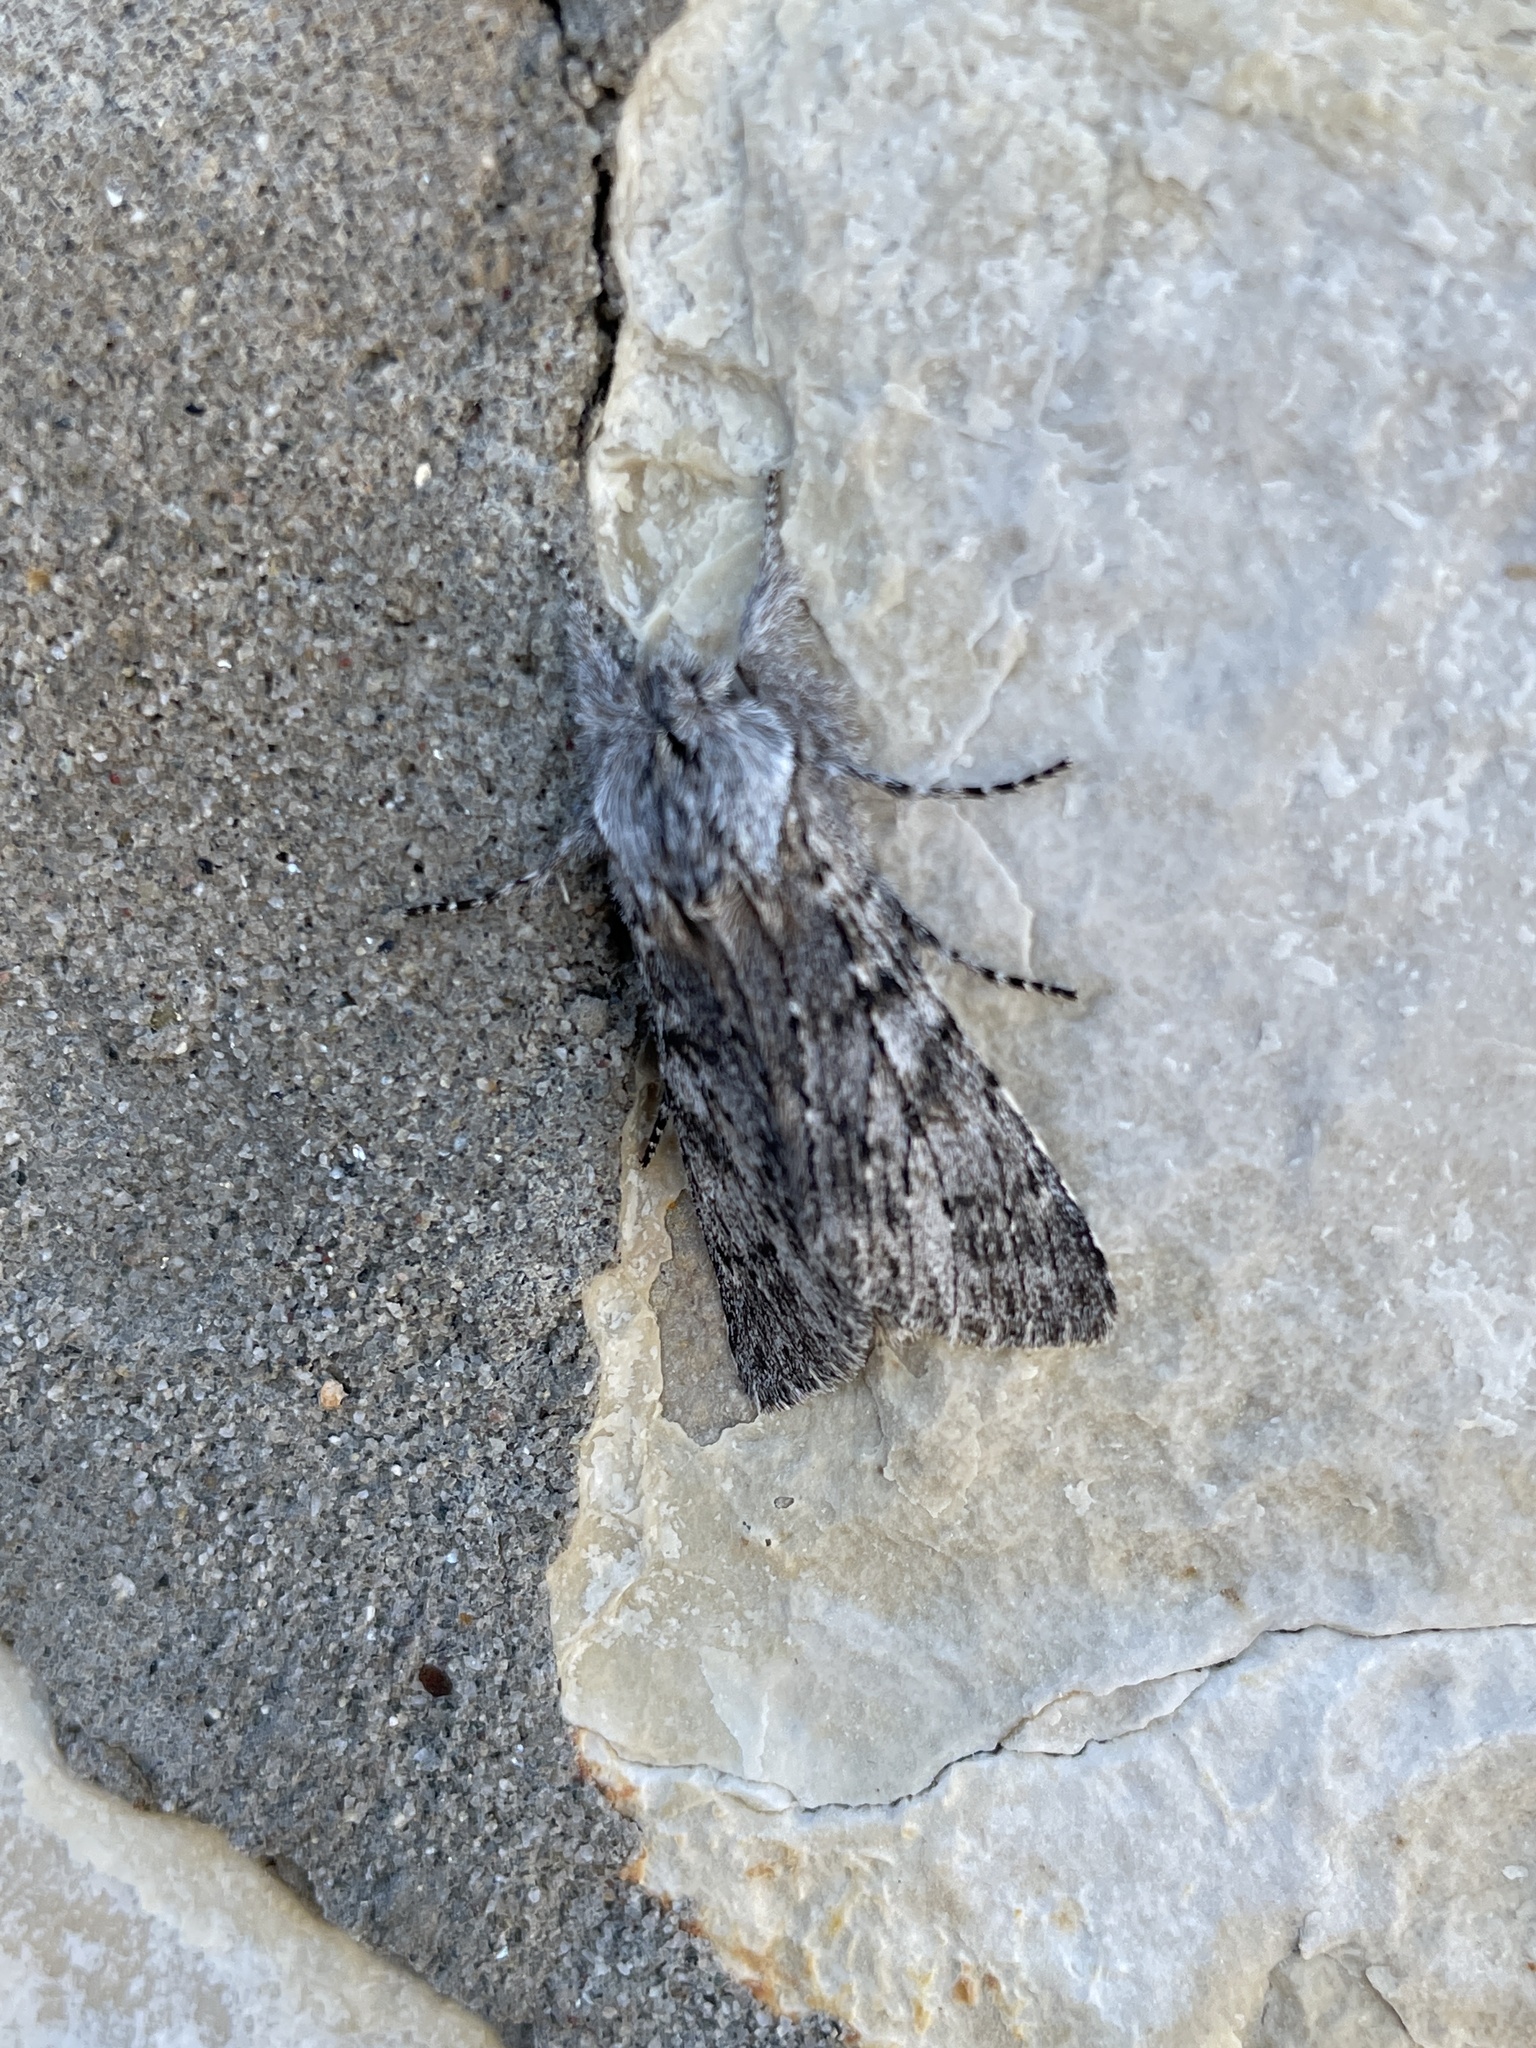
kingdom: Animalia
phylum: Arthropoda
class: Insecta
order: Lepidoptera
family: Notodontidae
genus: Dicranura
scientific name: Dicranura ulmi
